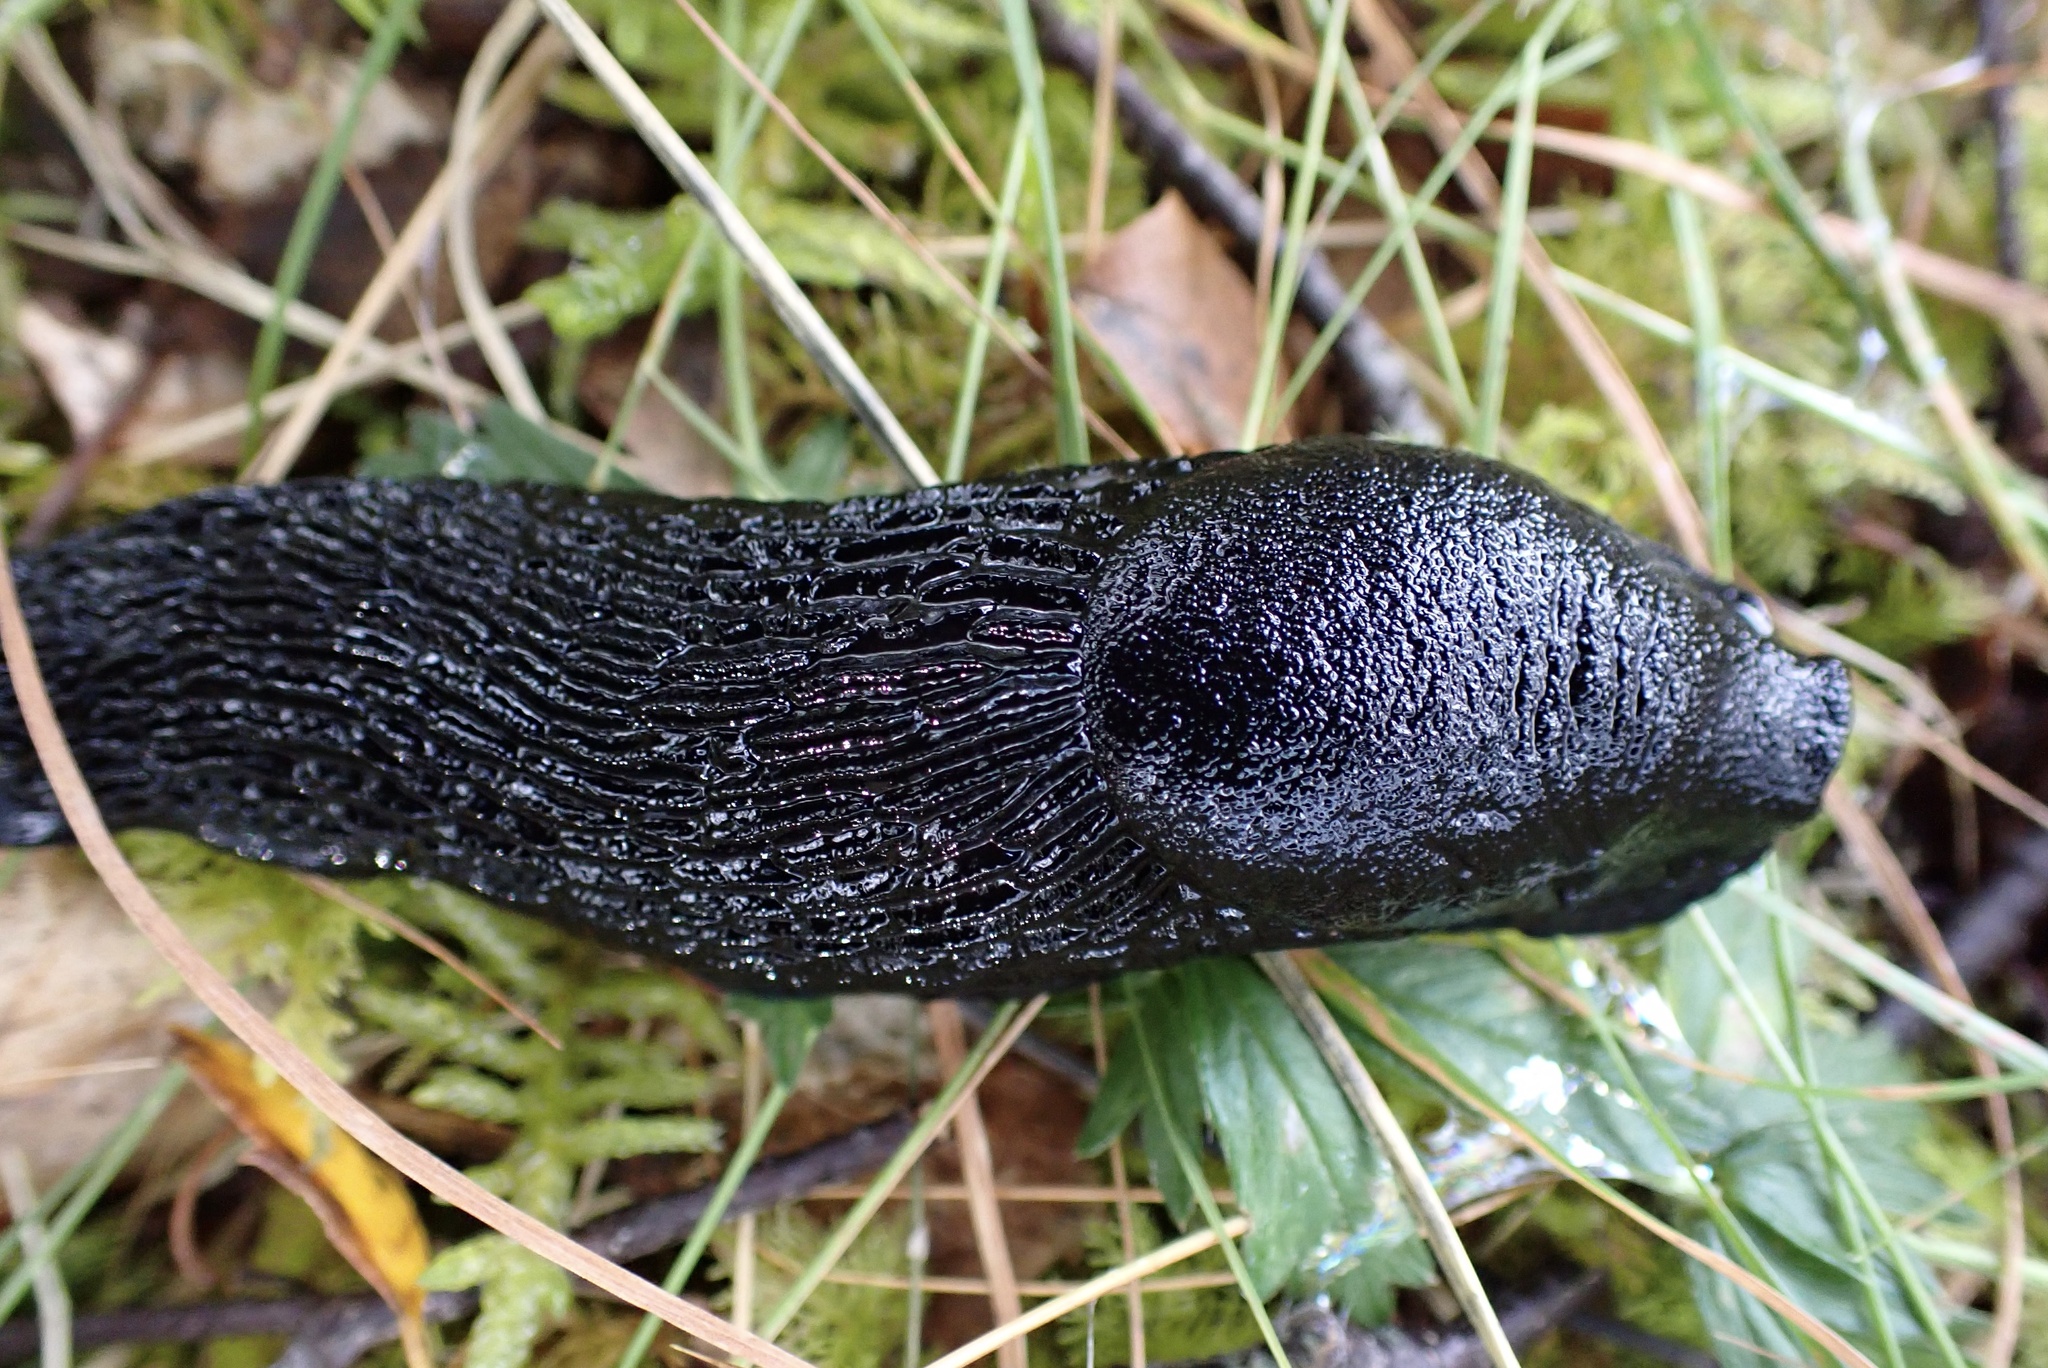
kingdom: Animalia
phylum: Mollusca
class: Gastropoda
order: Stylommatophora
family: Arionidae
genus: Arion
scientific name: Arion ater
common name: Black arion
